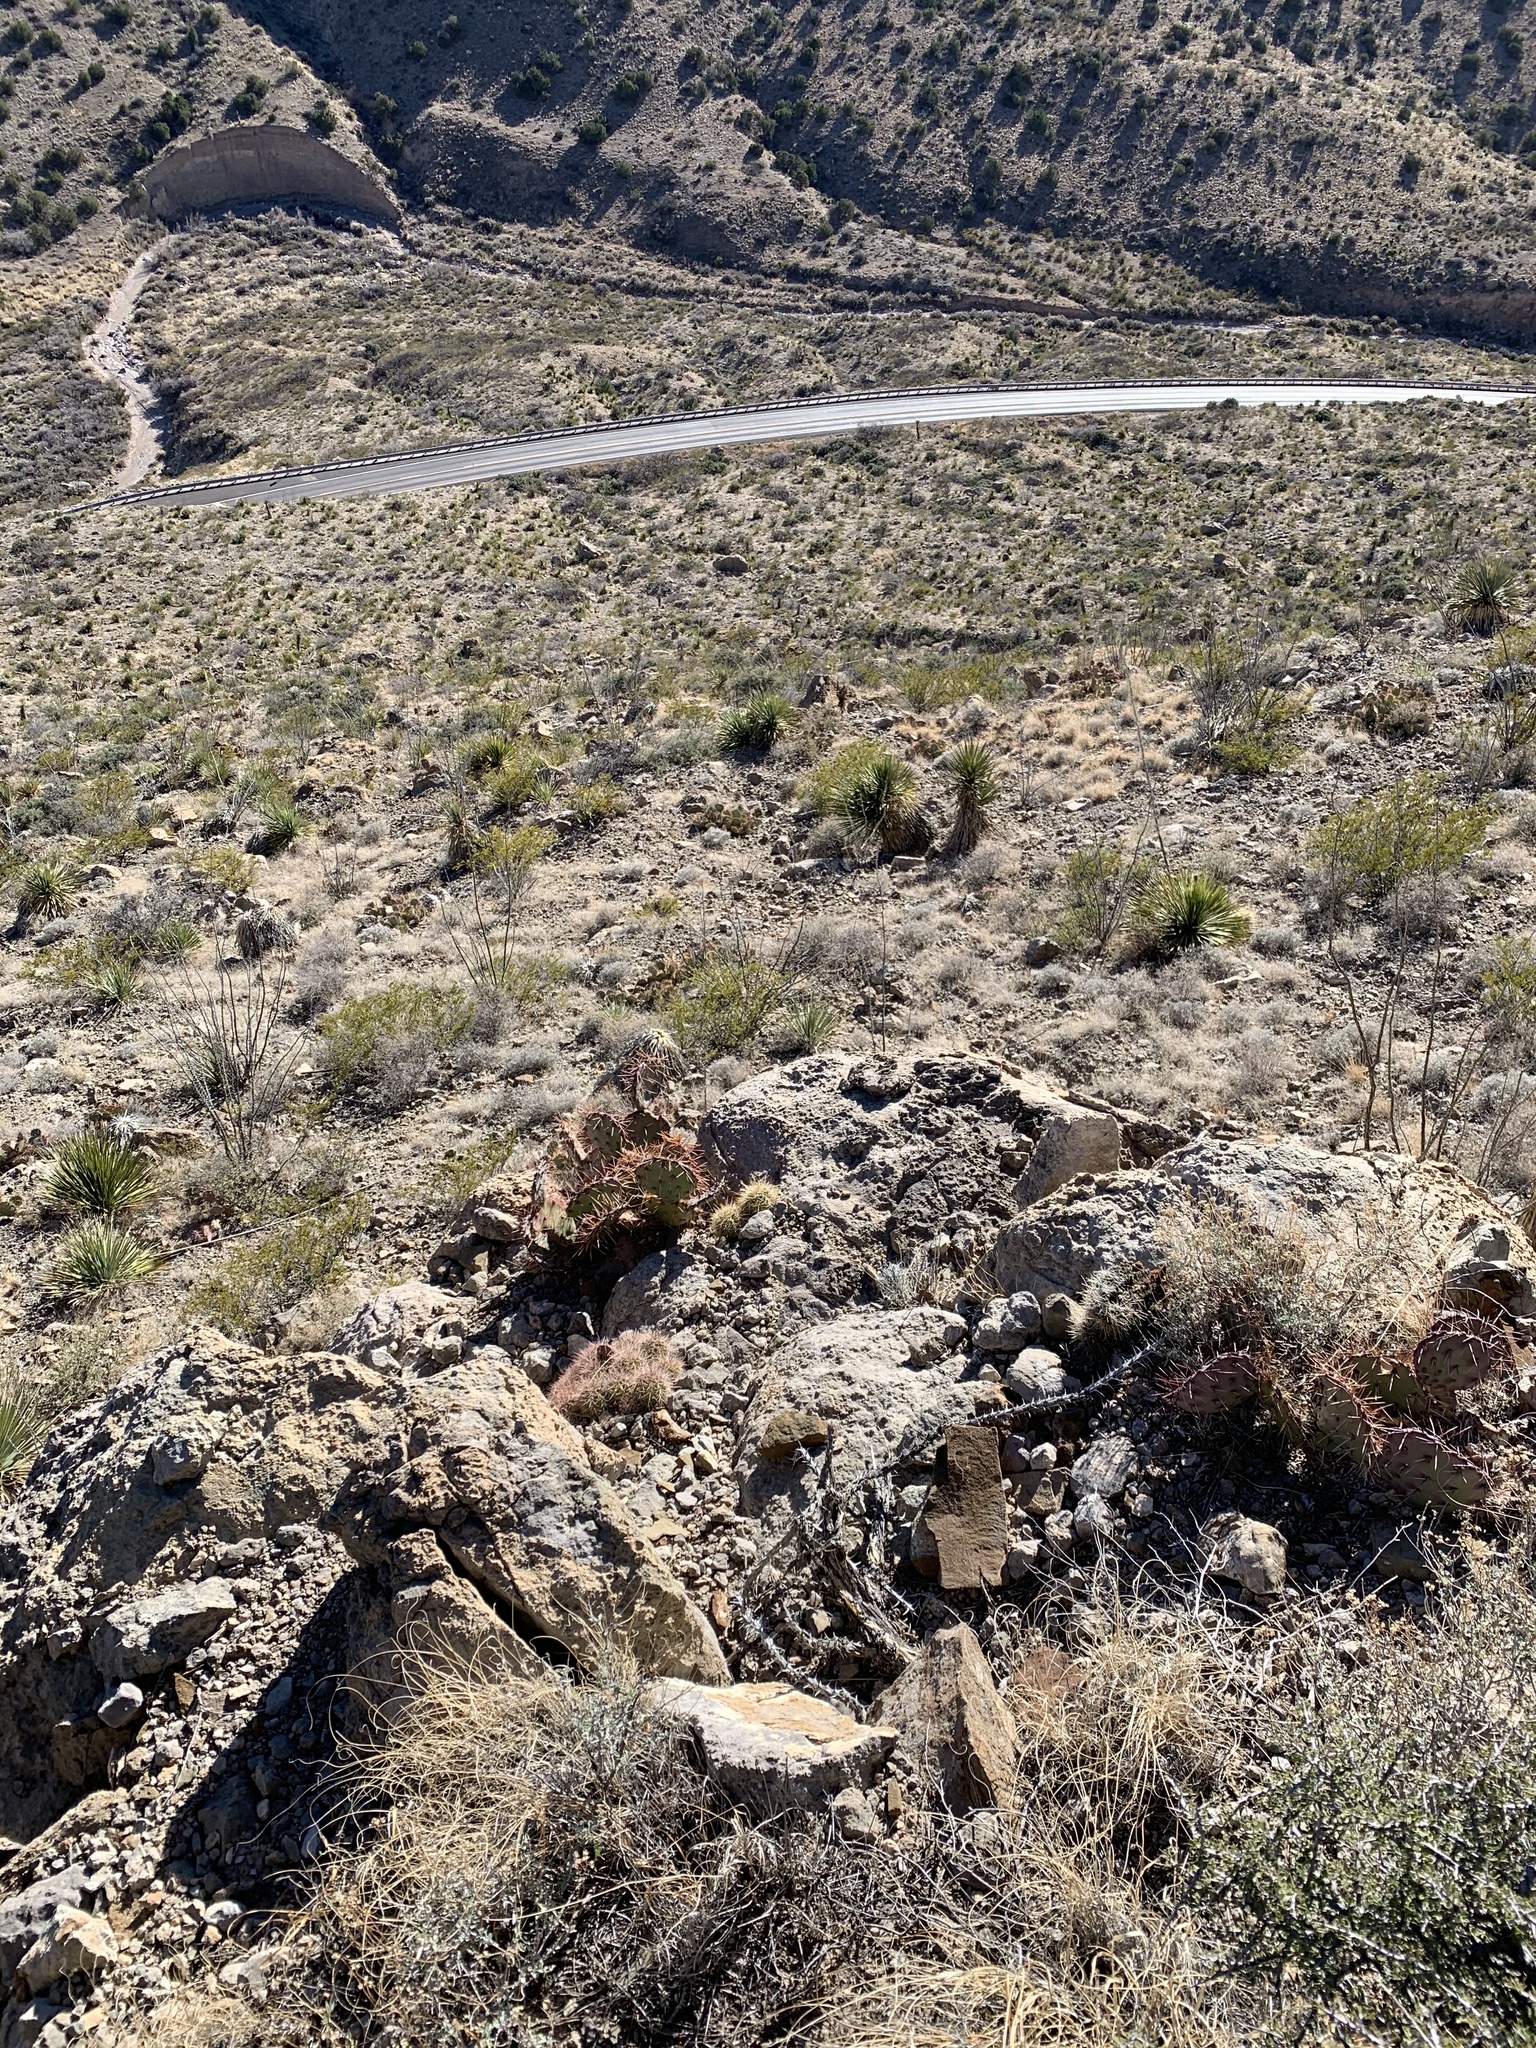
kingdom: Plantae
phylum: Tracheophyta
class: Magnoliopsida
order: Caryophyllales
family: Cactaceae
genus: Opuntia
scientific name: Opuntia phaeacantha
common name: New mexico prickly-pear
